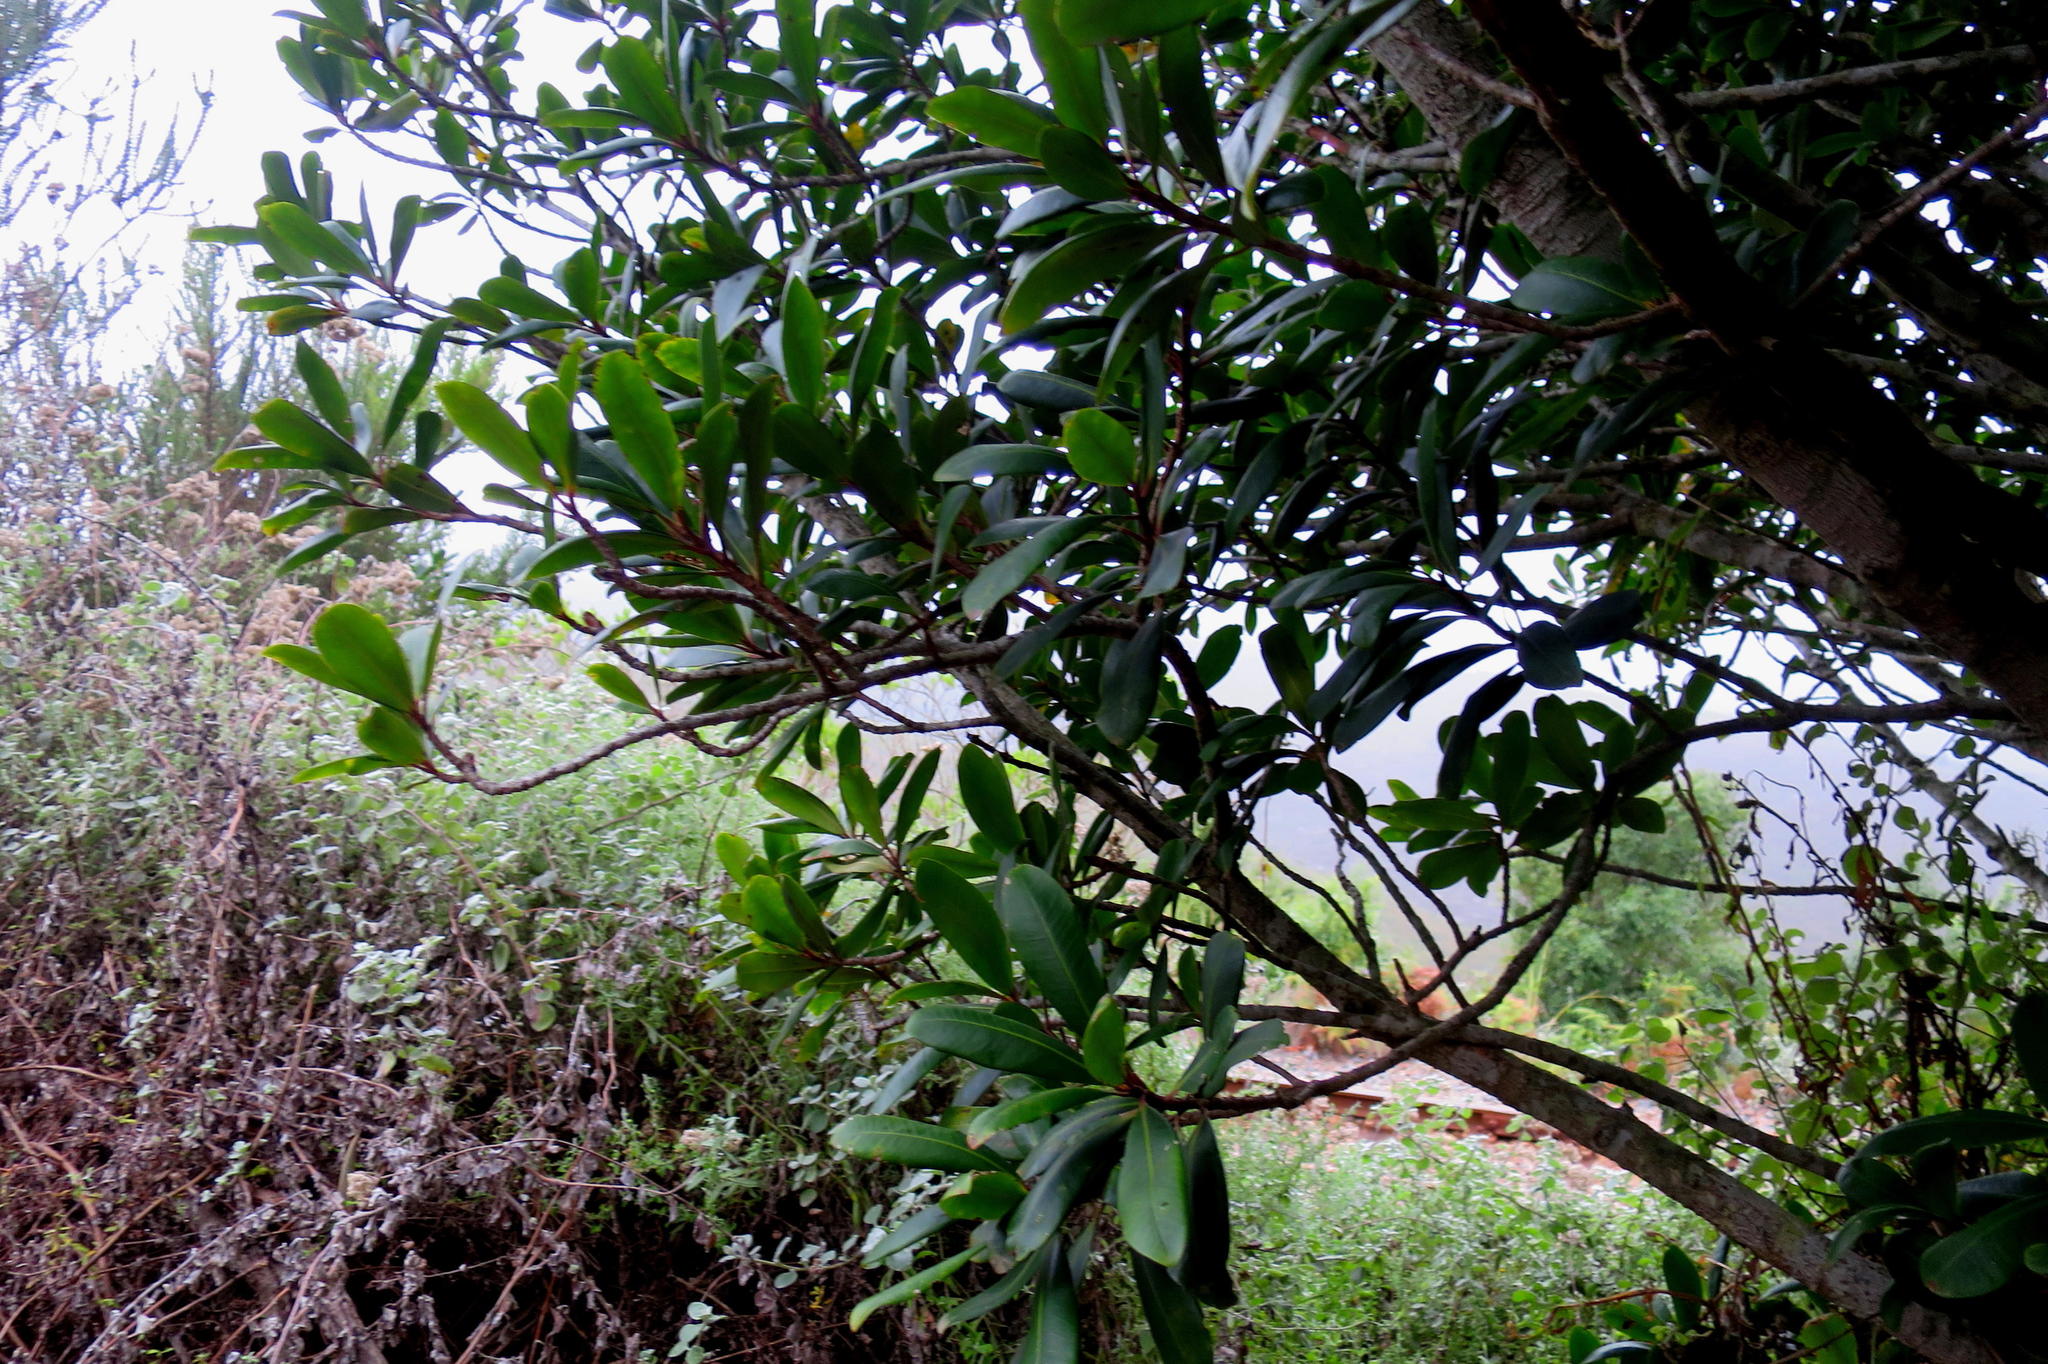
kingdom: Plantae
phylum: Tracheophyta
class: Magnoliopsida
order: Ericales
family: Primulaceae
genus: Myrsine
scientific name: Myrsine melanophloeos
